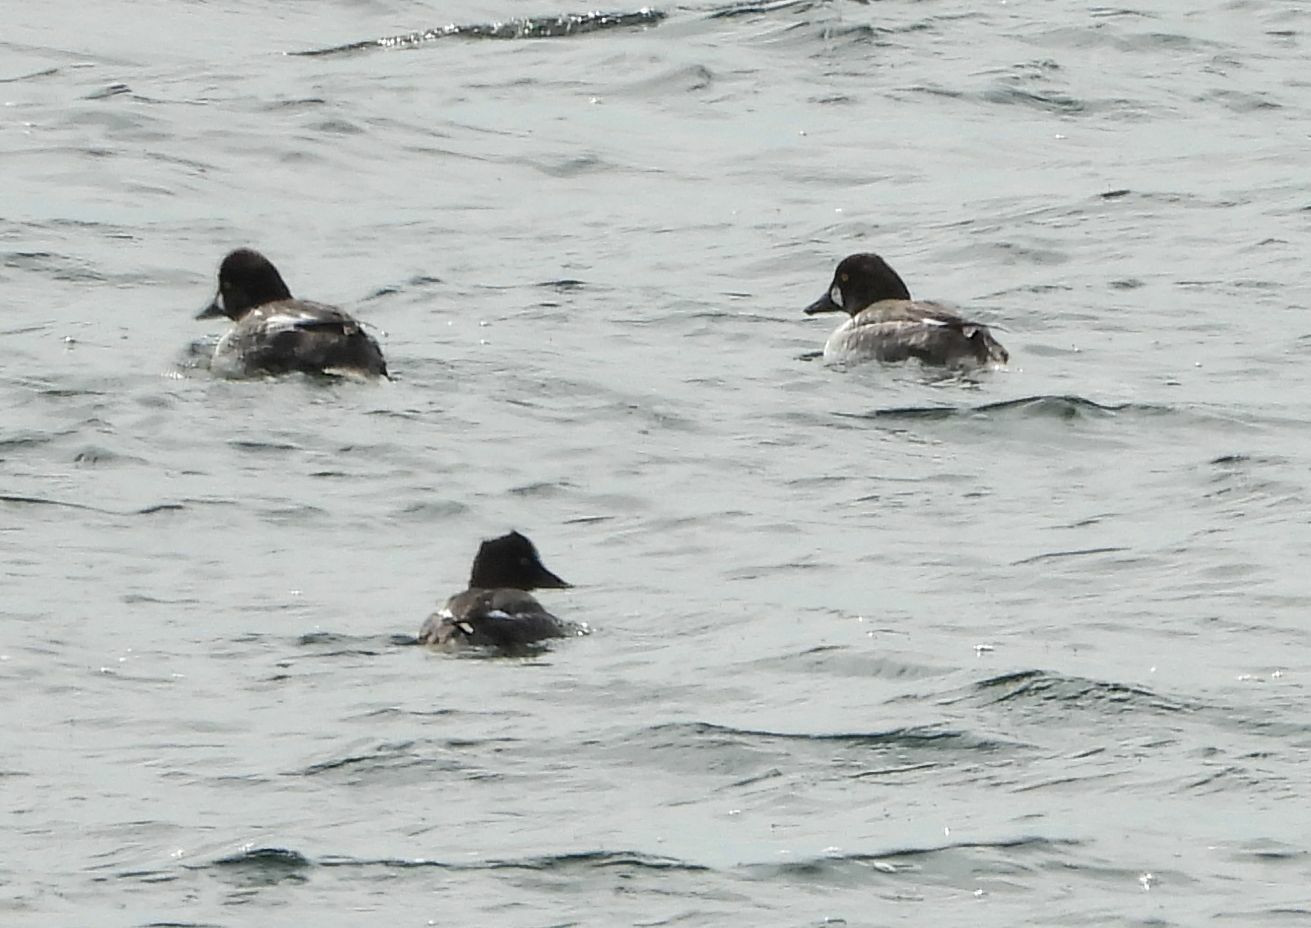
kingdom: Animalia
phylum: Chordata
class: Aves
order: Anseriformes
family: Anatidae
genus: Bucephala
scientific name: Bucephala clangula
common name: Common goldeneye
